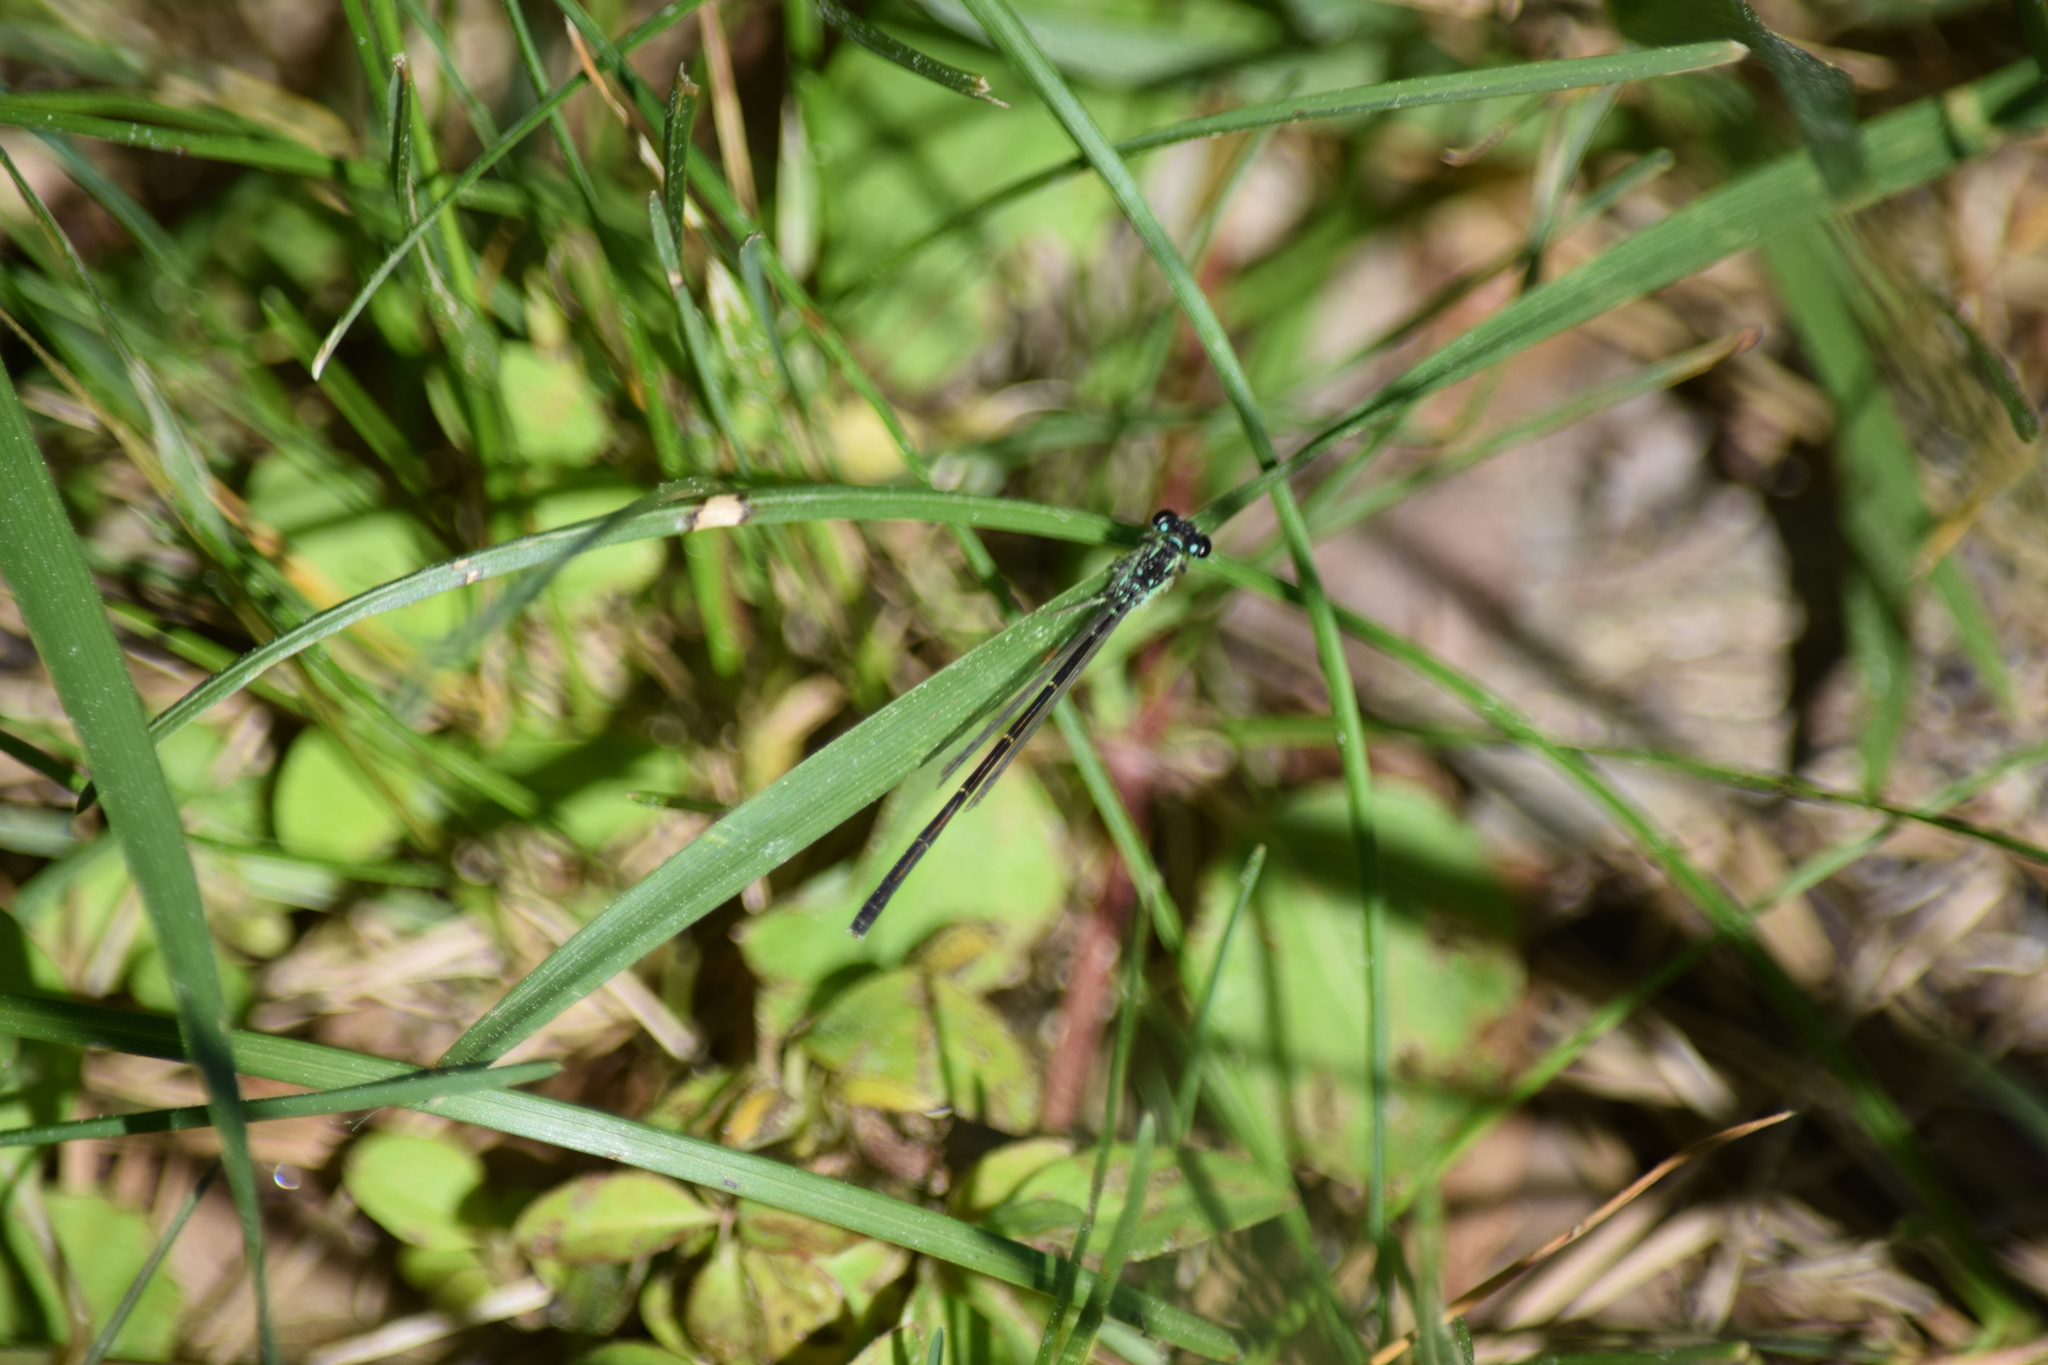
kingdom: Animalia
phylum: Arthropoda
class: Insecta
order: Odonata
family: Coenagrionidae
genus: Ischnura
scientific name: Ischnura posita
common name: Fragile forktail
